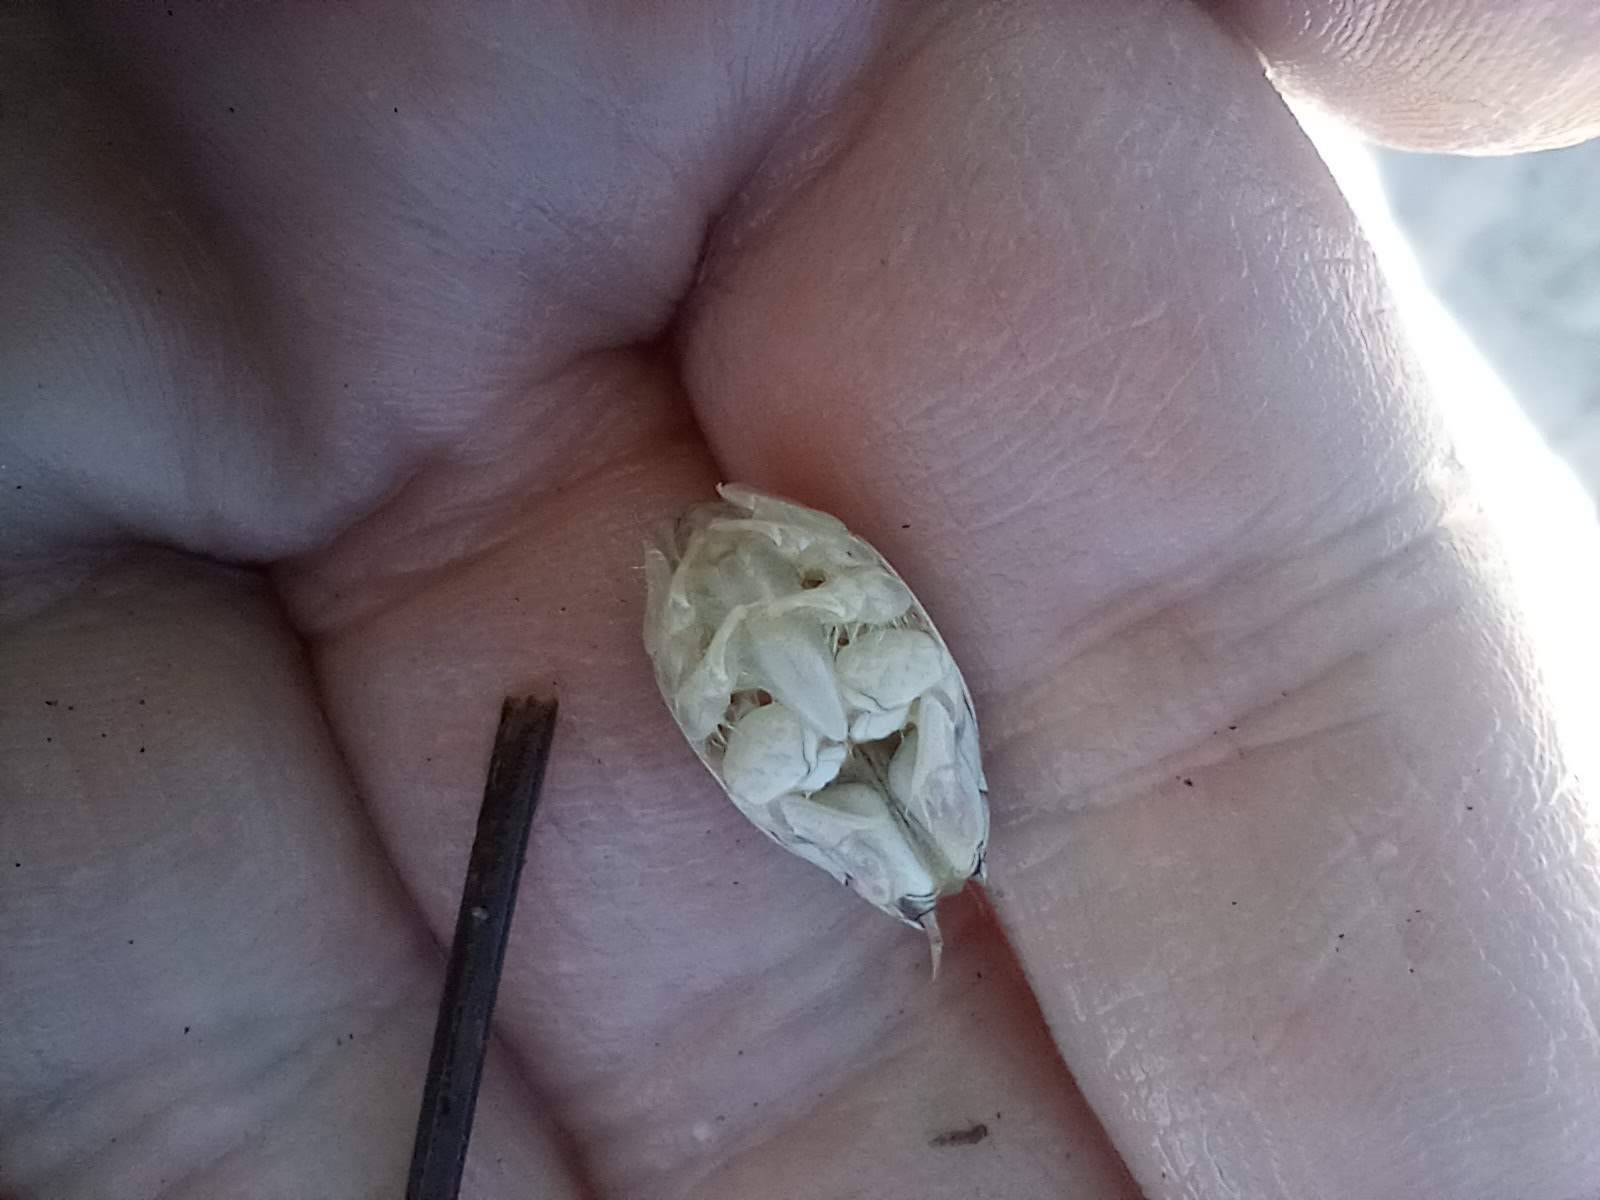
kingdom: Animalia
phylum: Arthropoda
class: Malacostraca
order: Decapoda
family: Hippidae
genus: Emerita
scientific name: Emerita analoga
